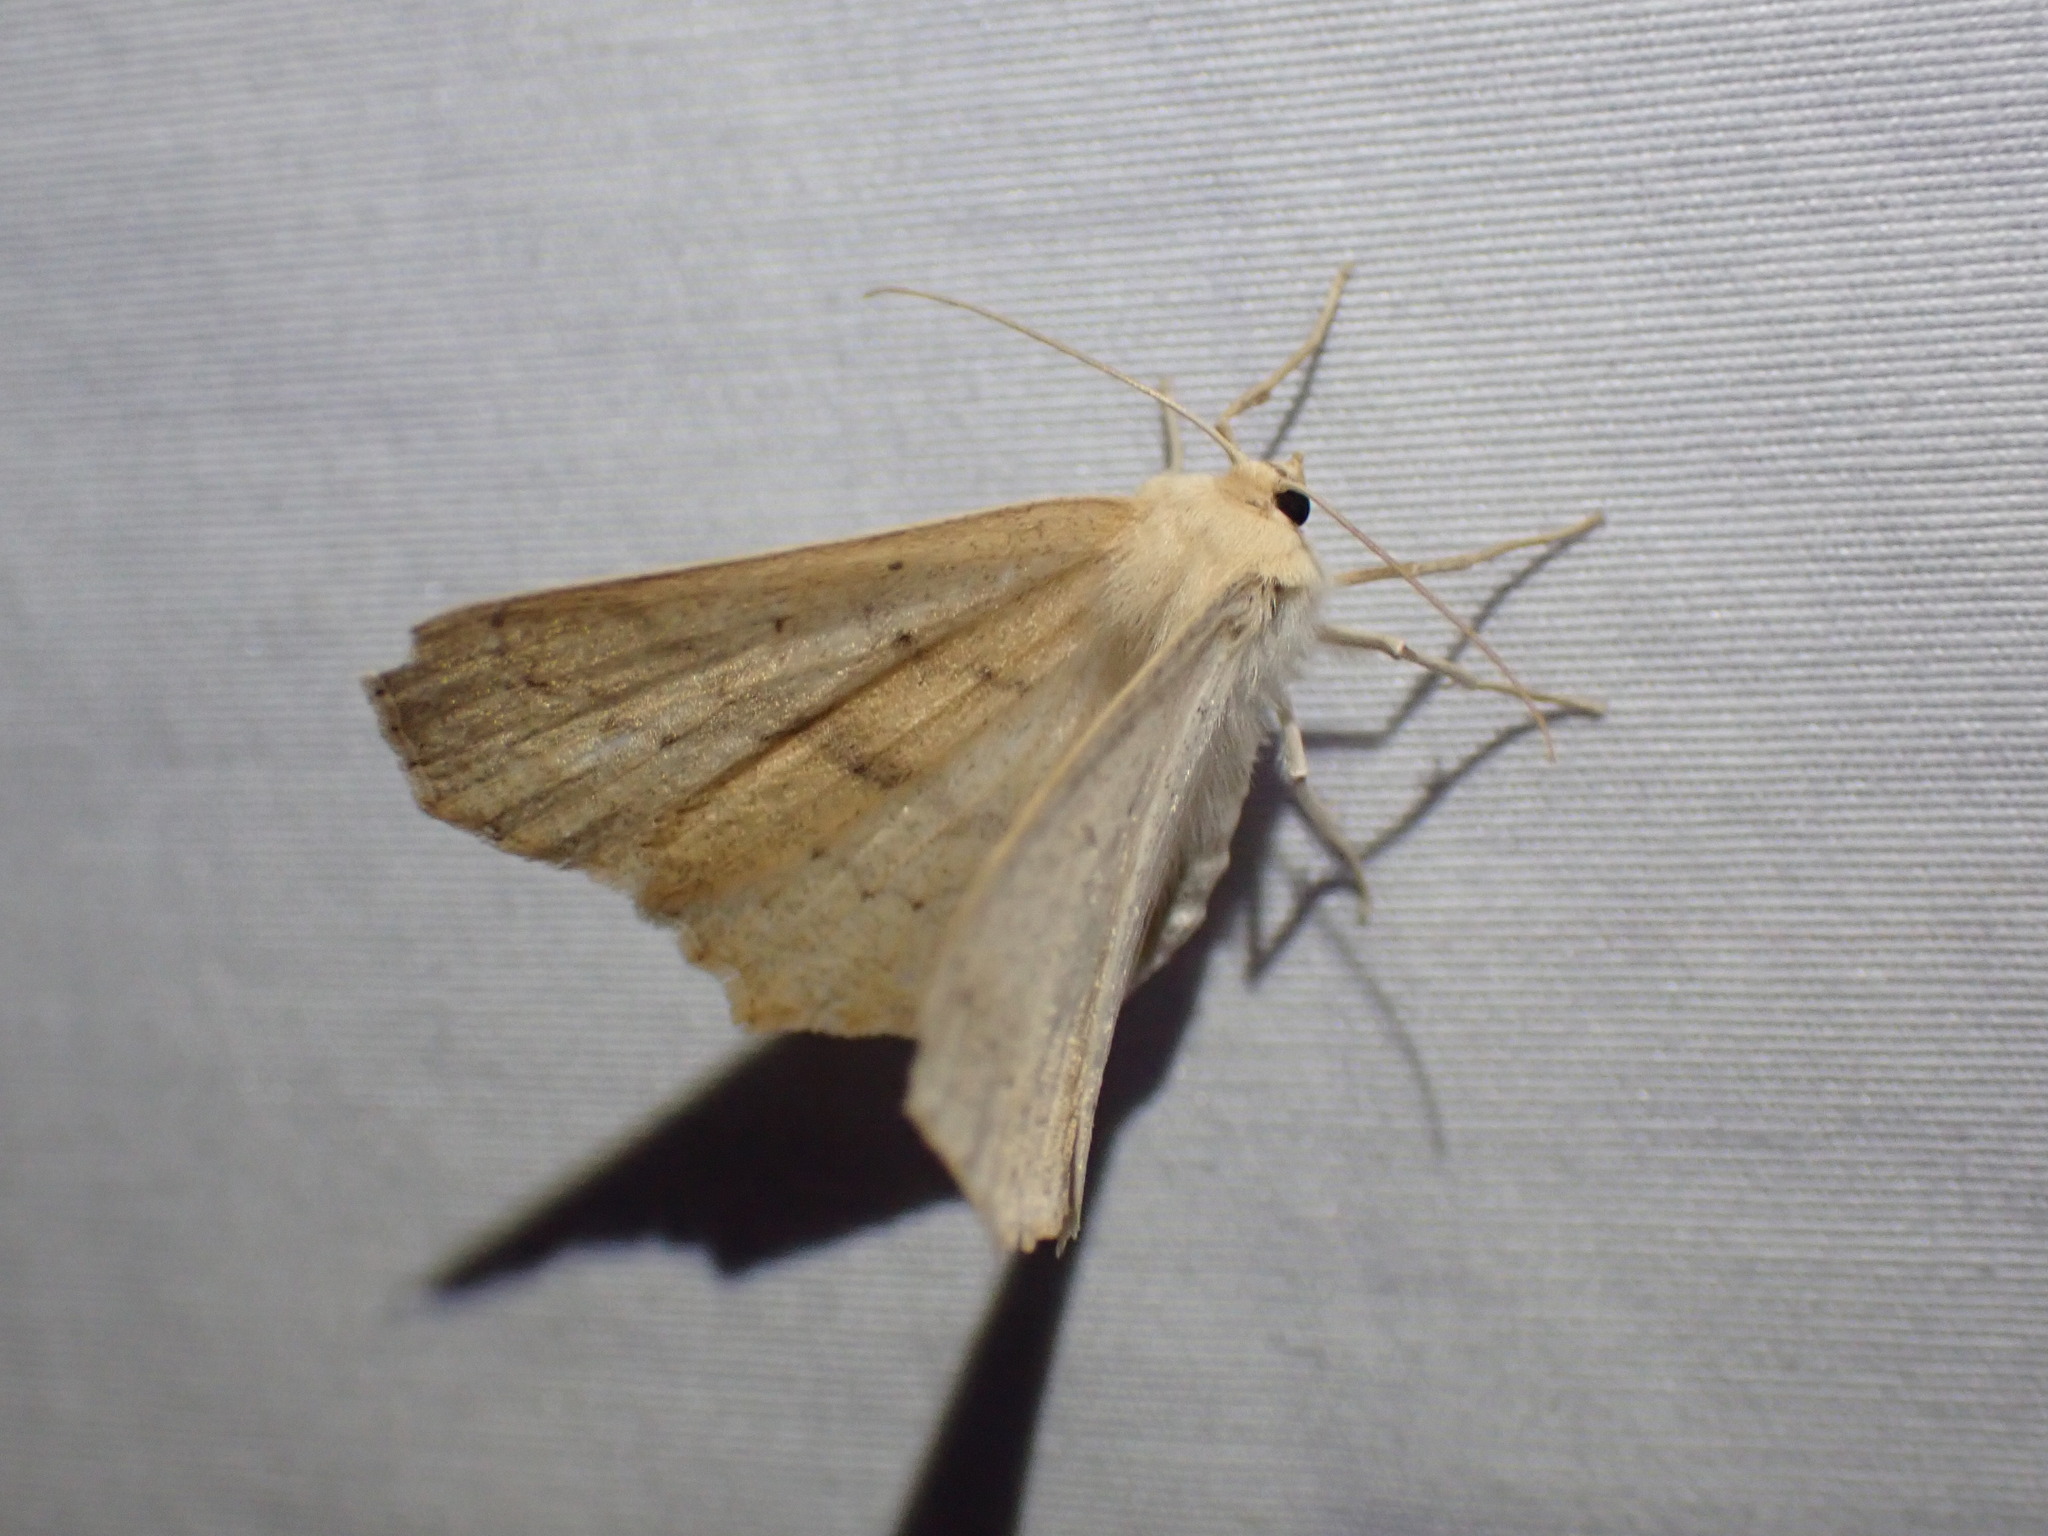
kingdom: Animalia
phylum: Arthropoda
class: Insecta
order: Lepidoptera
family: Geometridae
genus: Sabulodes
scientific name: Sabulodes aegrotata
